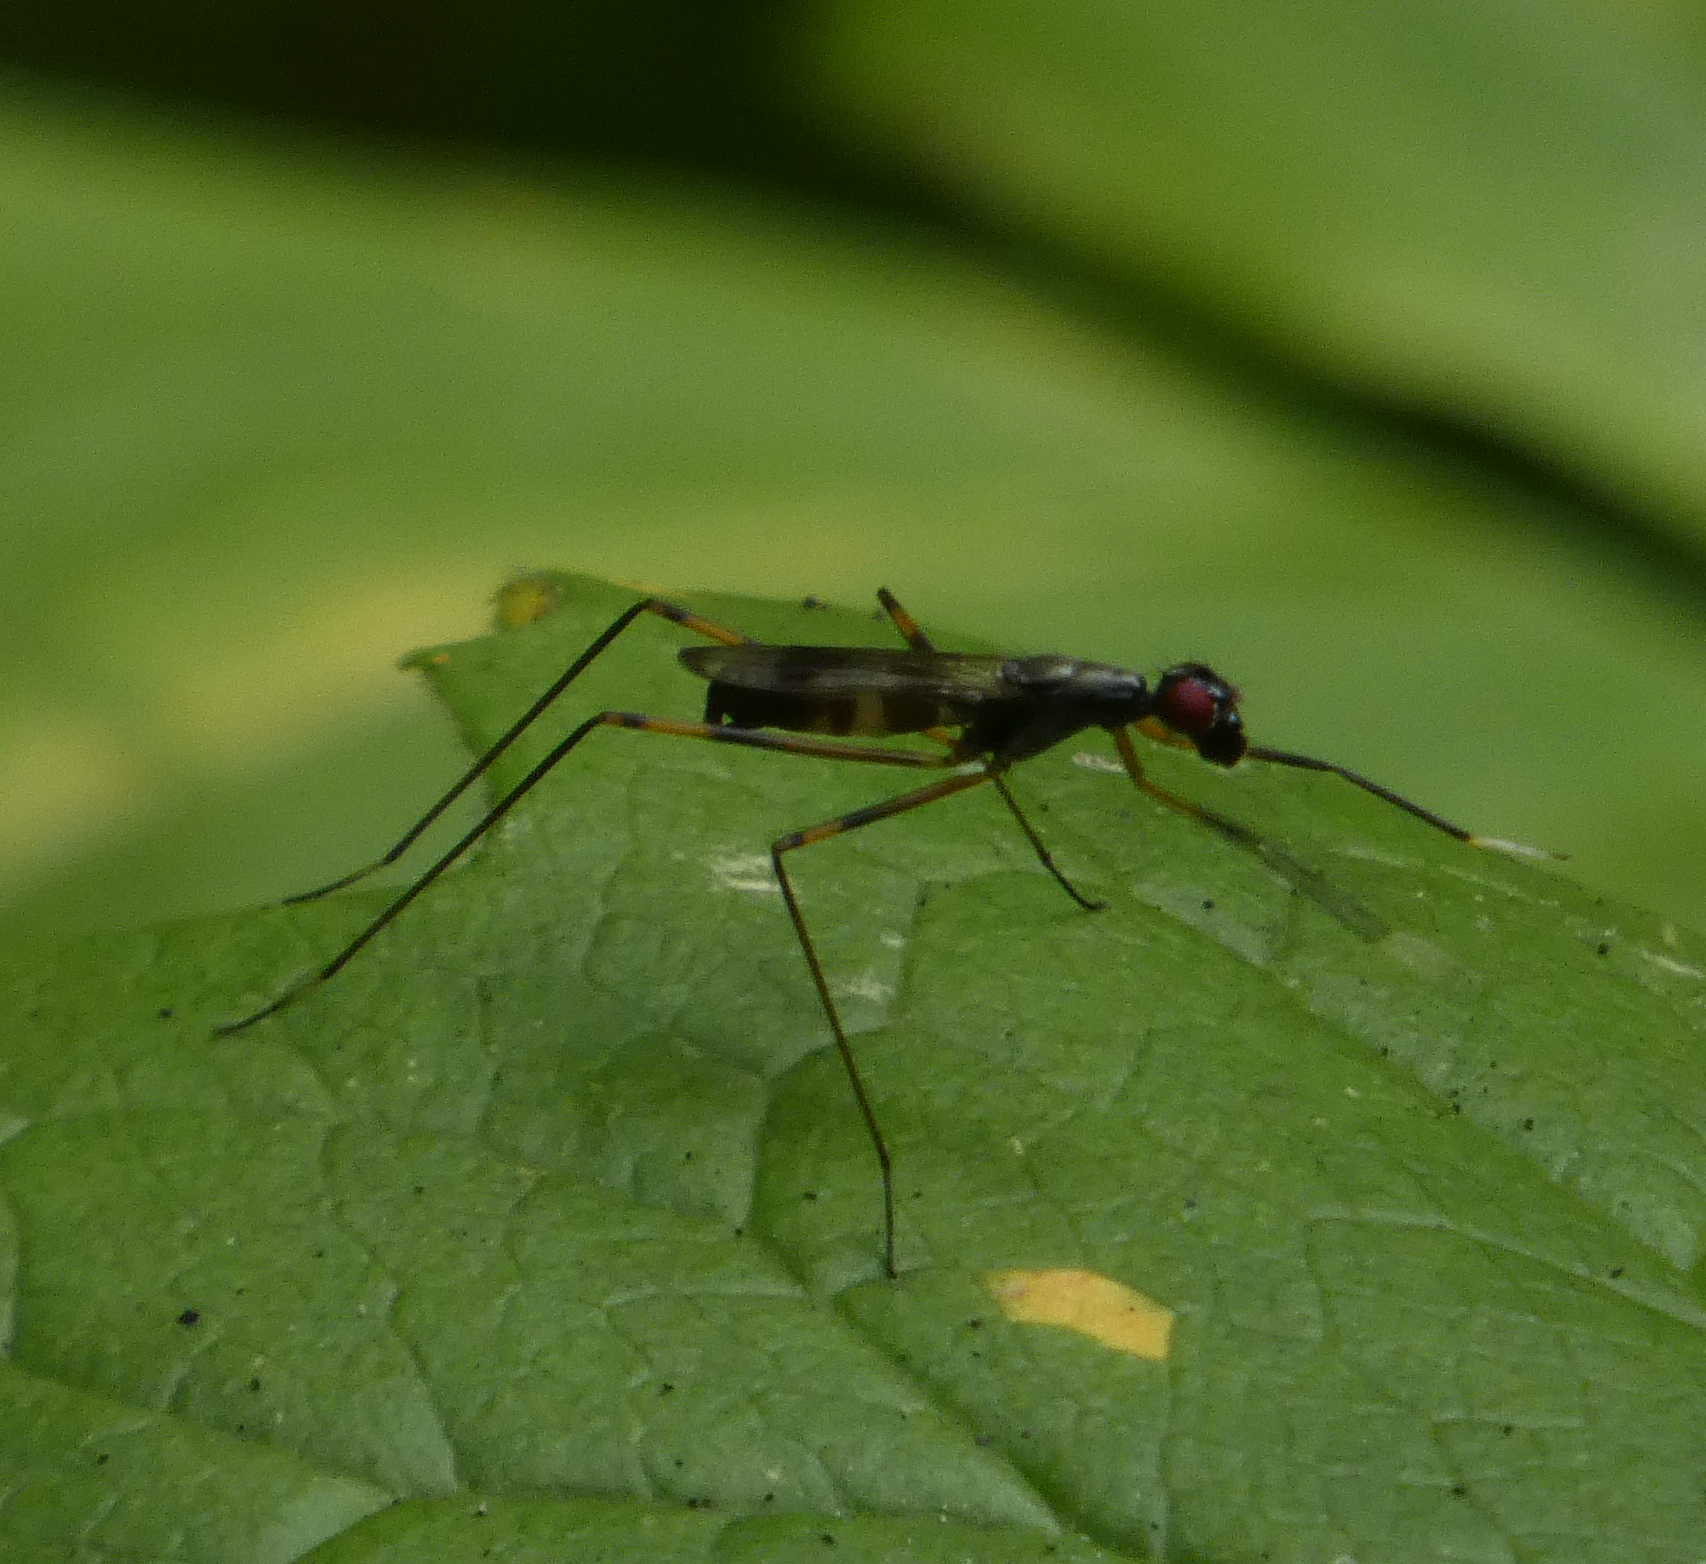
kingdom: Animalia
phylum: Arthropoda
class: Insecta
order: Diptera
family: Micropezidae
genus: Rainieria
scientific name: Rainieria antennaepes
